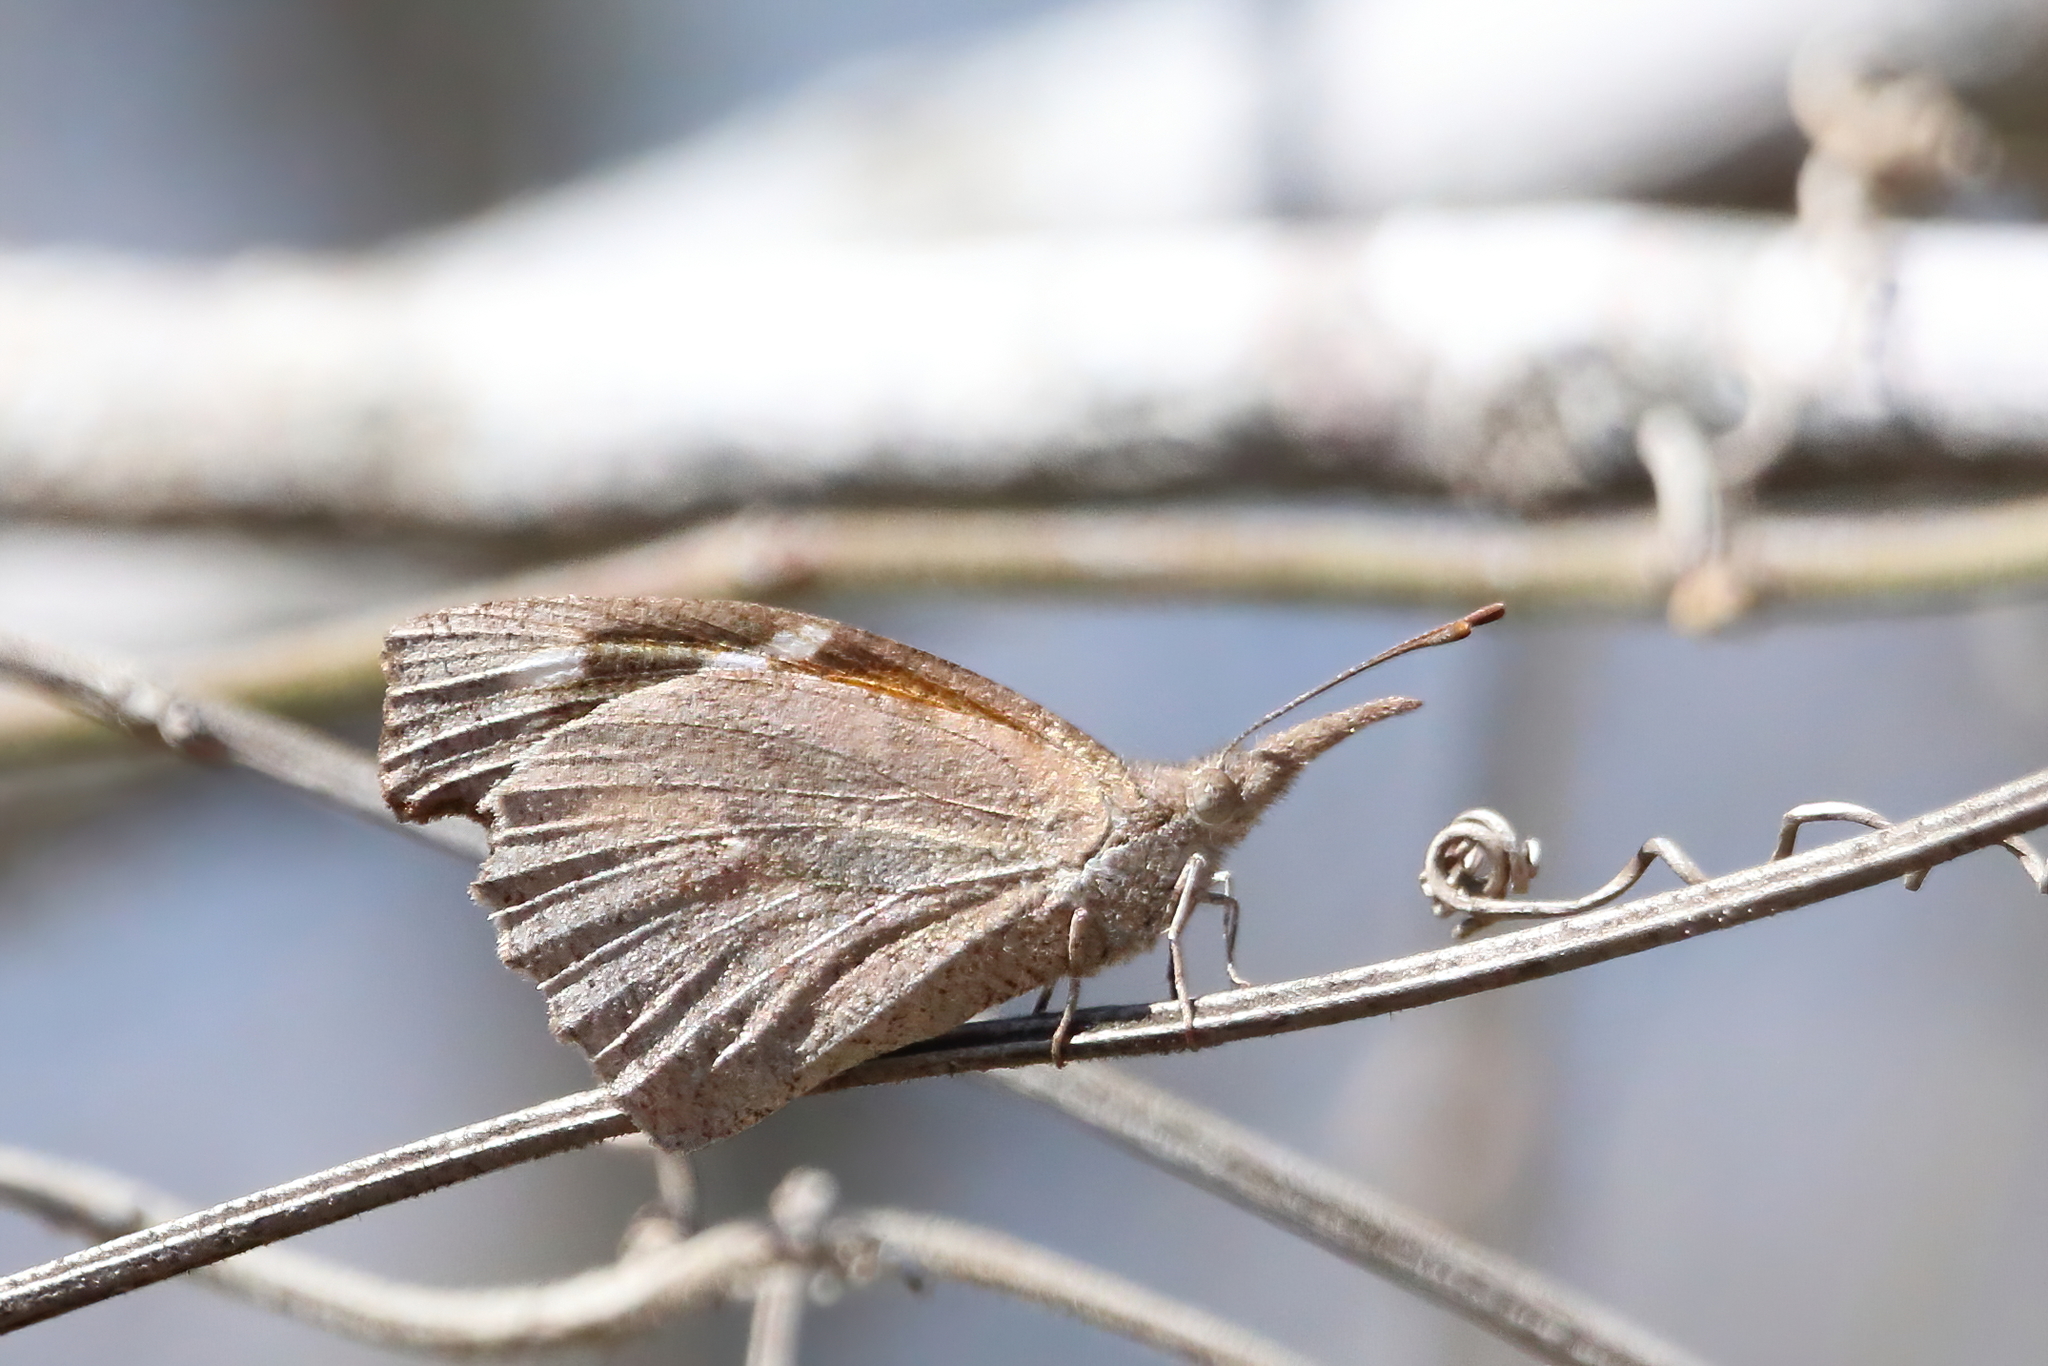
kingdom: Animalia
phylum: Arthropoda
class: Insecta
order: Lepidoptera
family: Nymphalidae
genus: Libytheana
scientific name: Libytheana carinenta
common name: American snout
